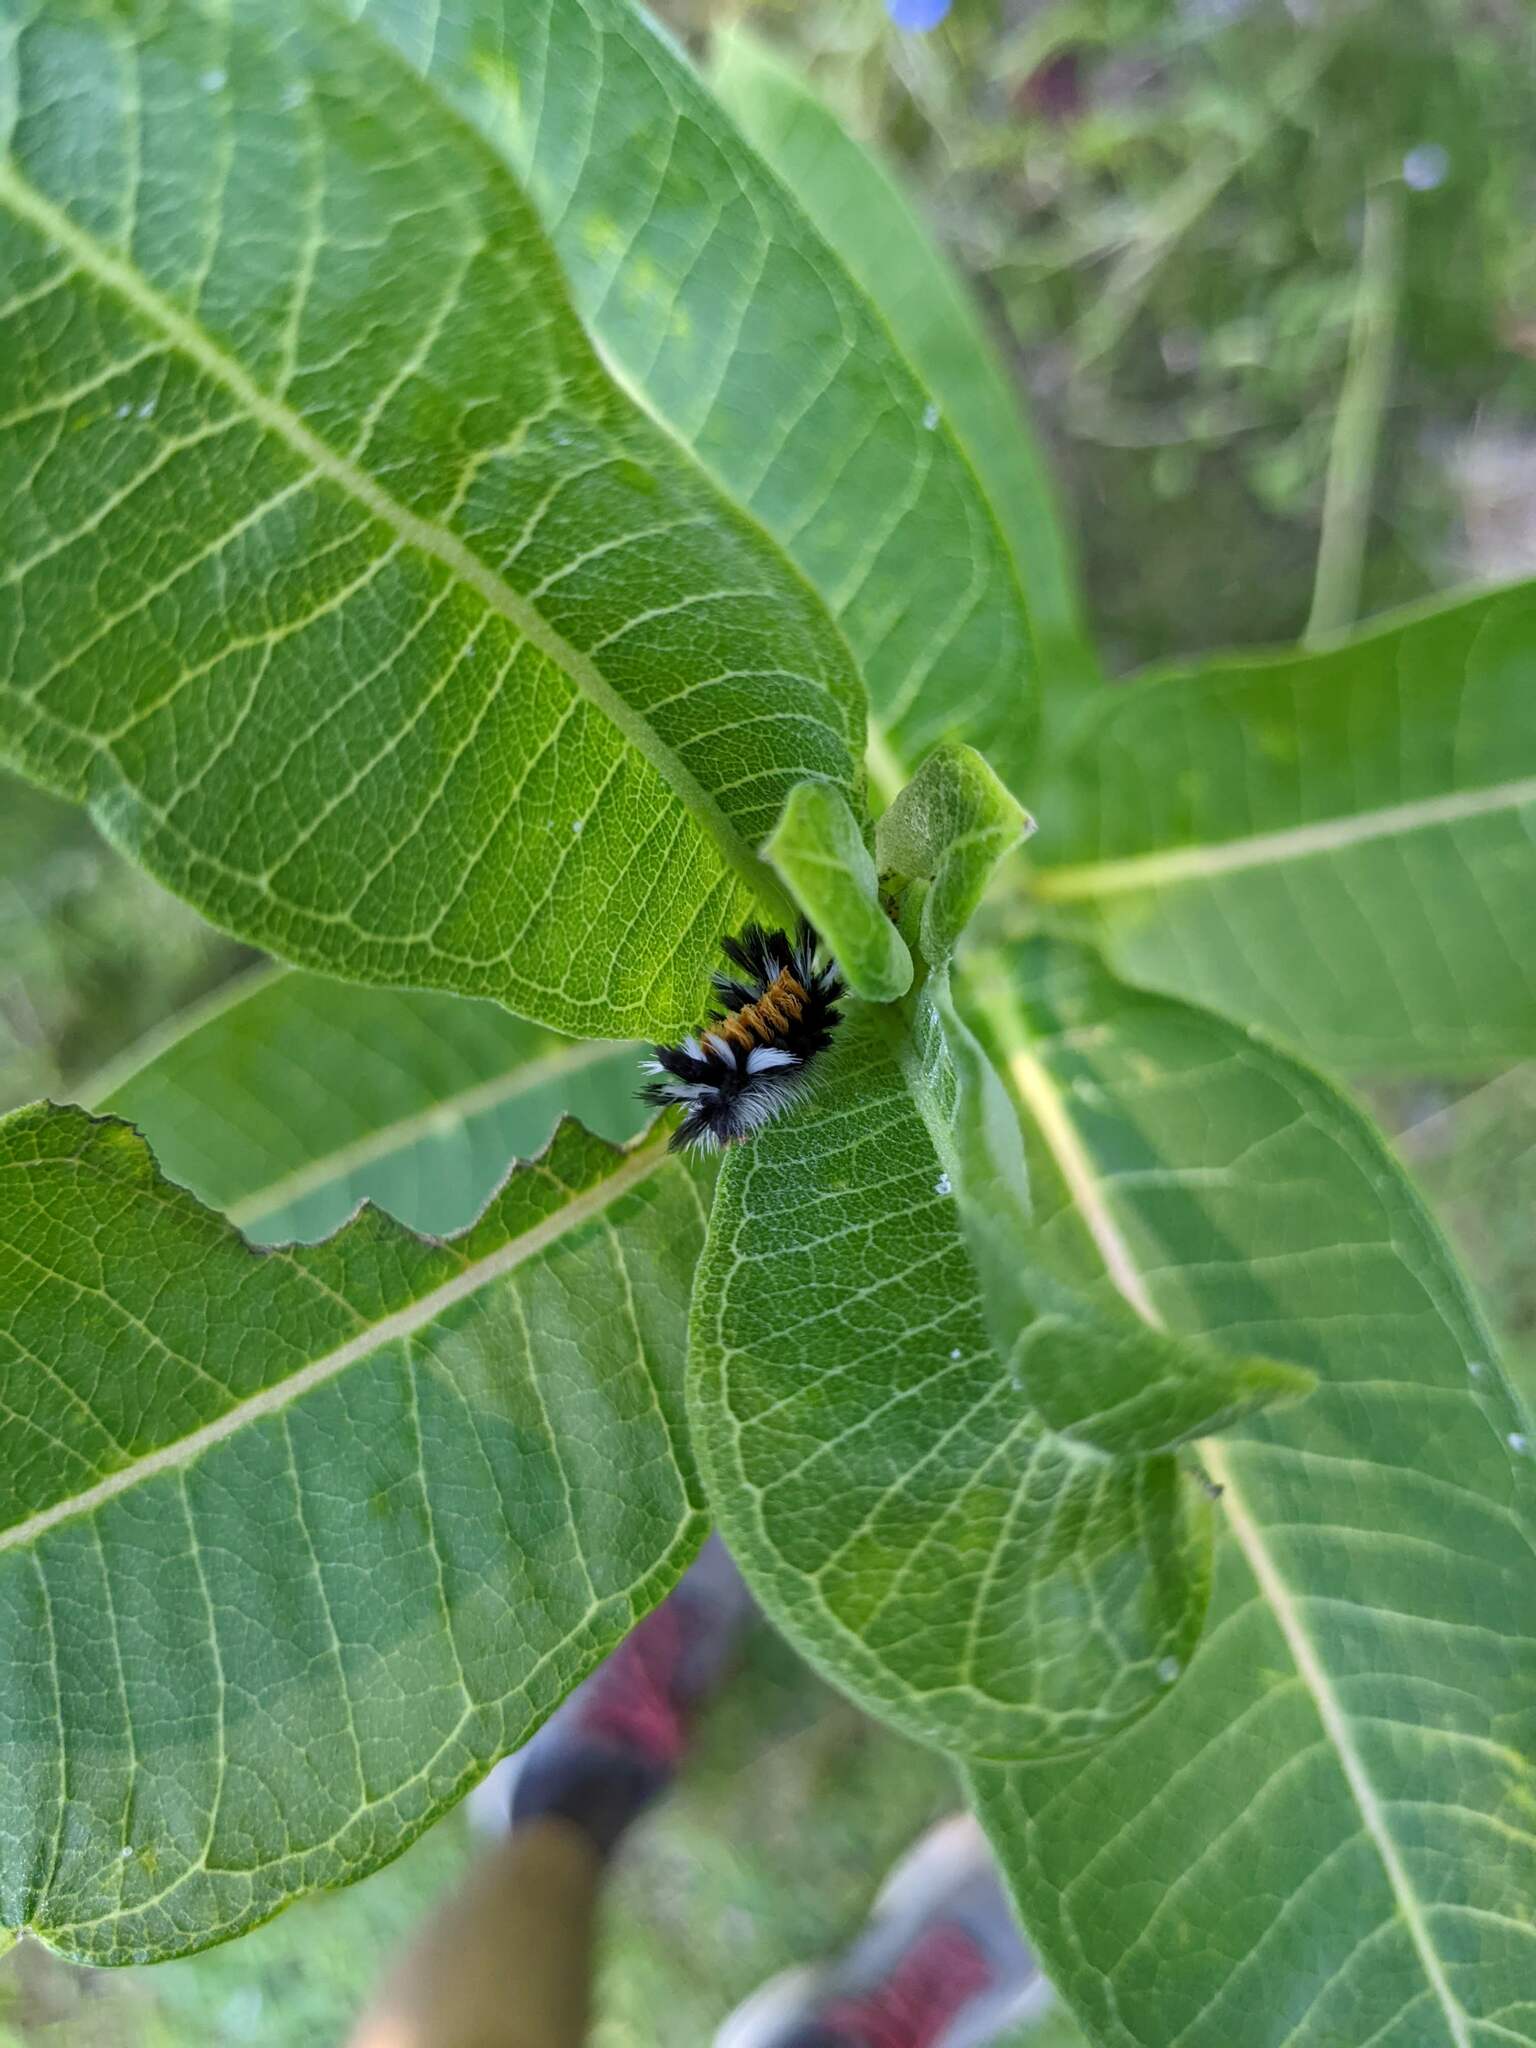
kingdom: Animalia
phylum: Arthropoda
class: Insecta
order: Lepidoptera
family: Erebidae
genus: Euchaetes
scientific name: Euchaetes egle
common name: Milkweed tussock moth
